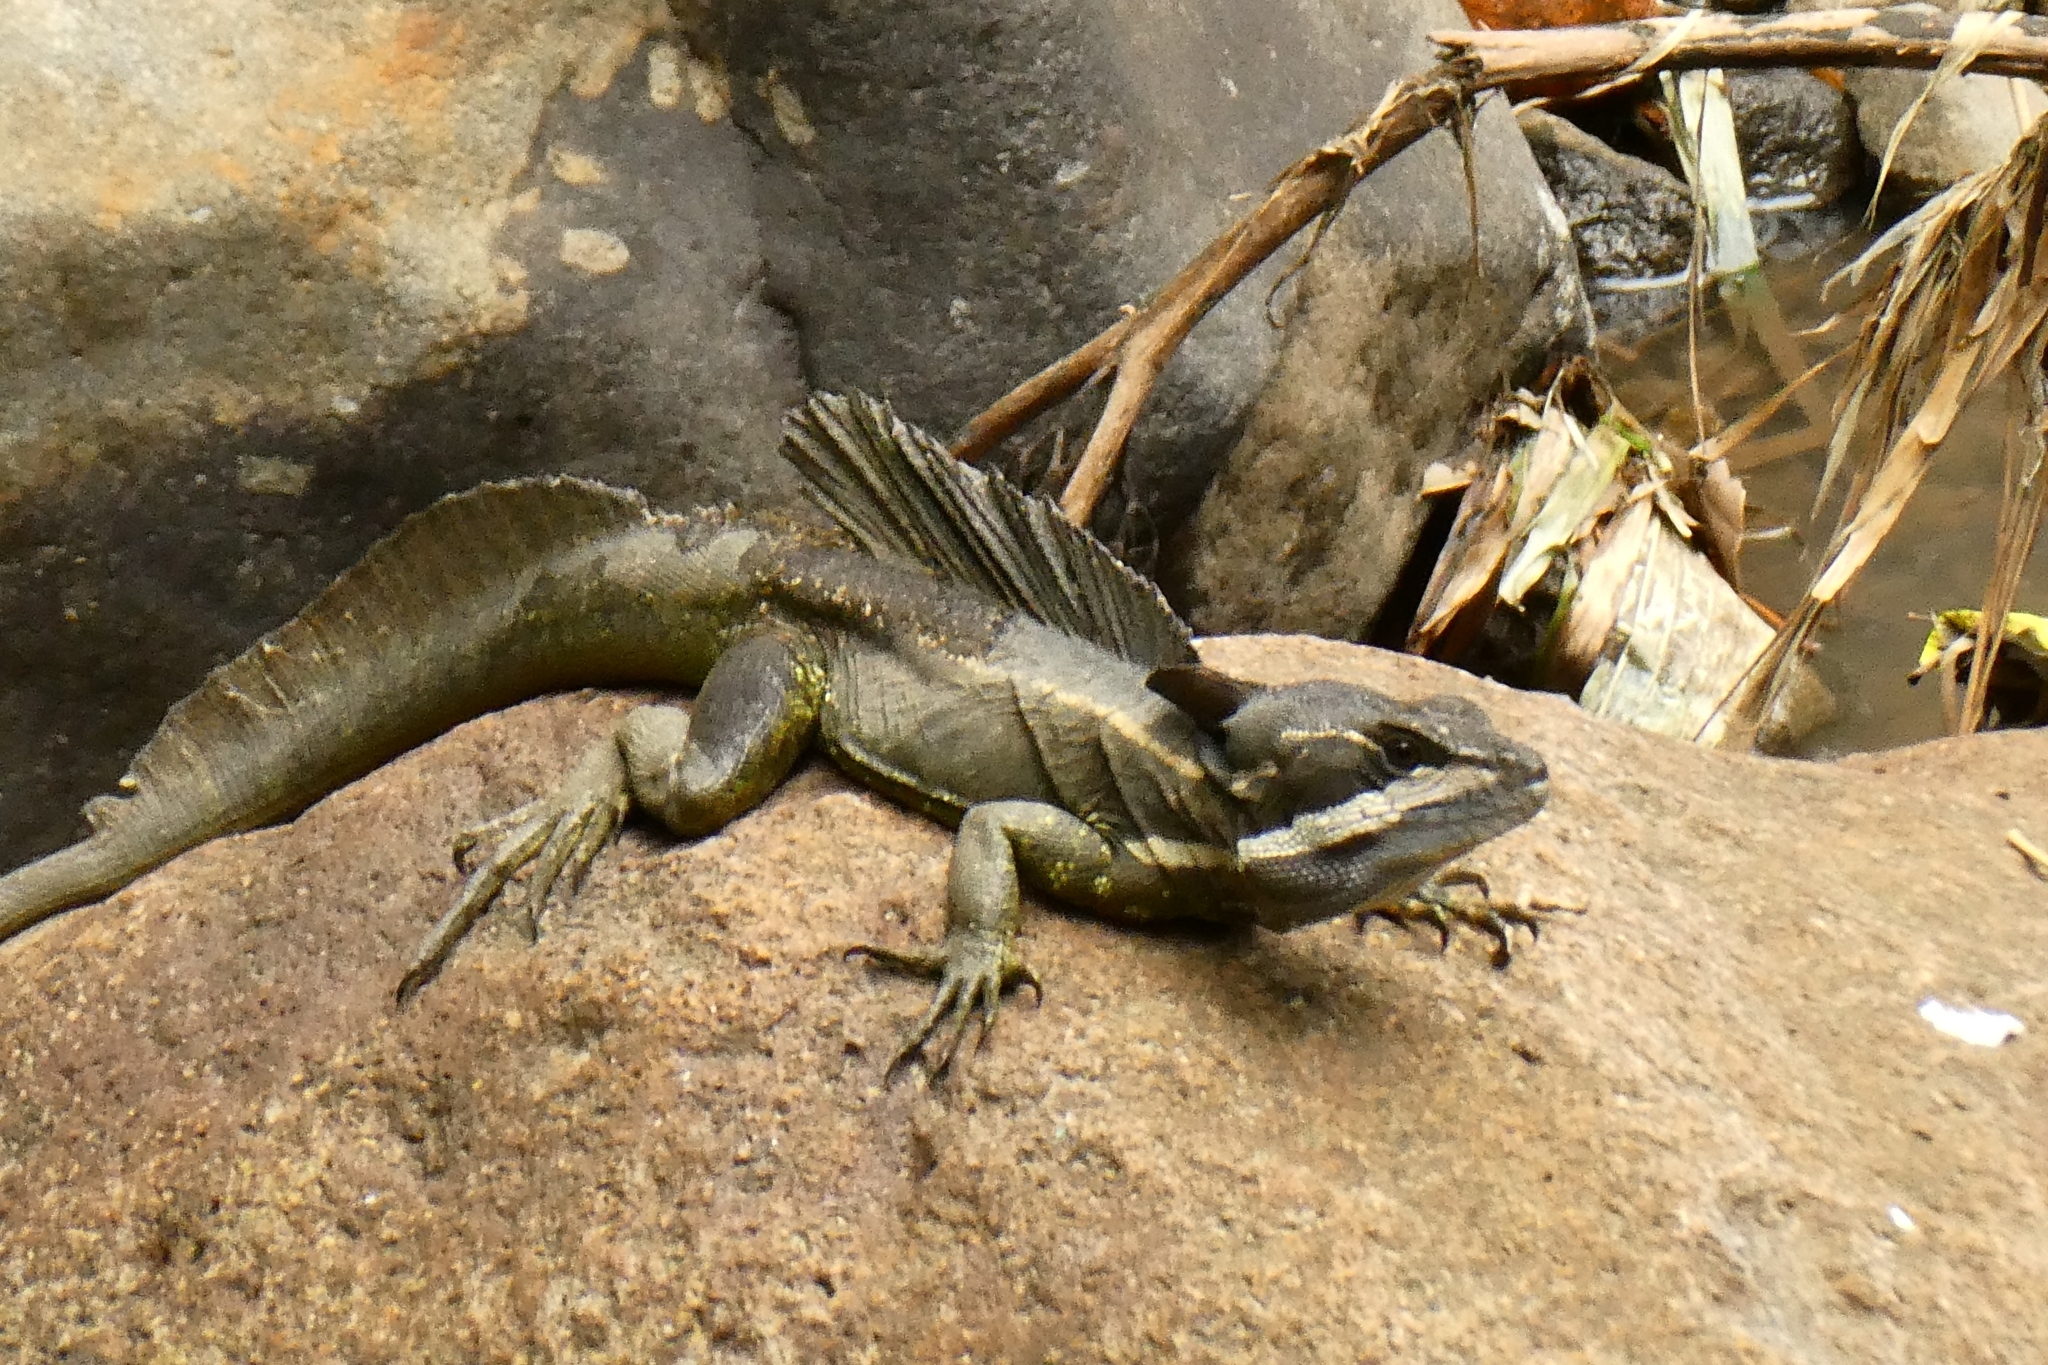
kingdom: Animalia
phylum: Chordata
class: Squamata
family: Corytophanidae
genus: Basiliscus
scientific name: Basiliscus basiliscus
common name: Common basilisk
